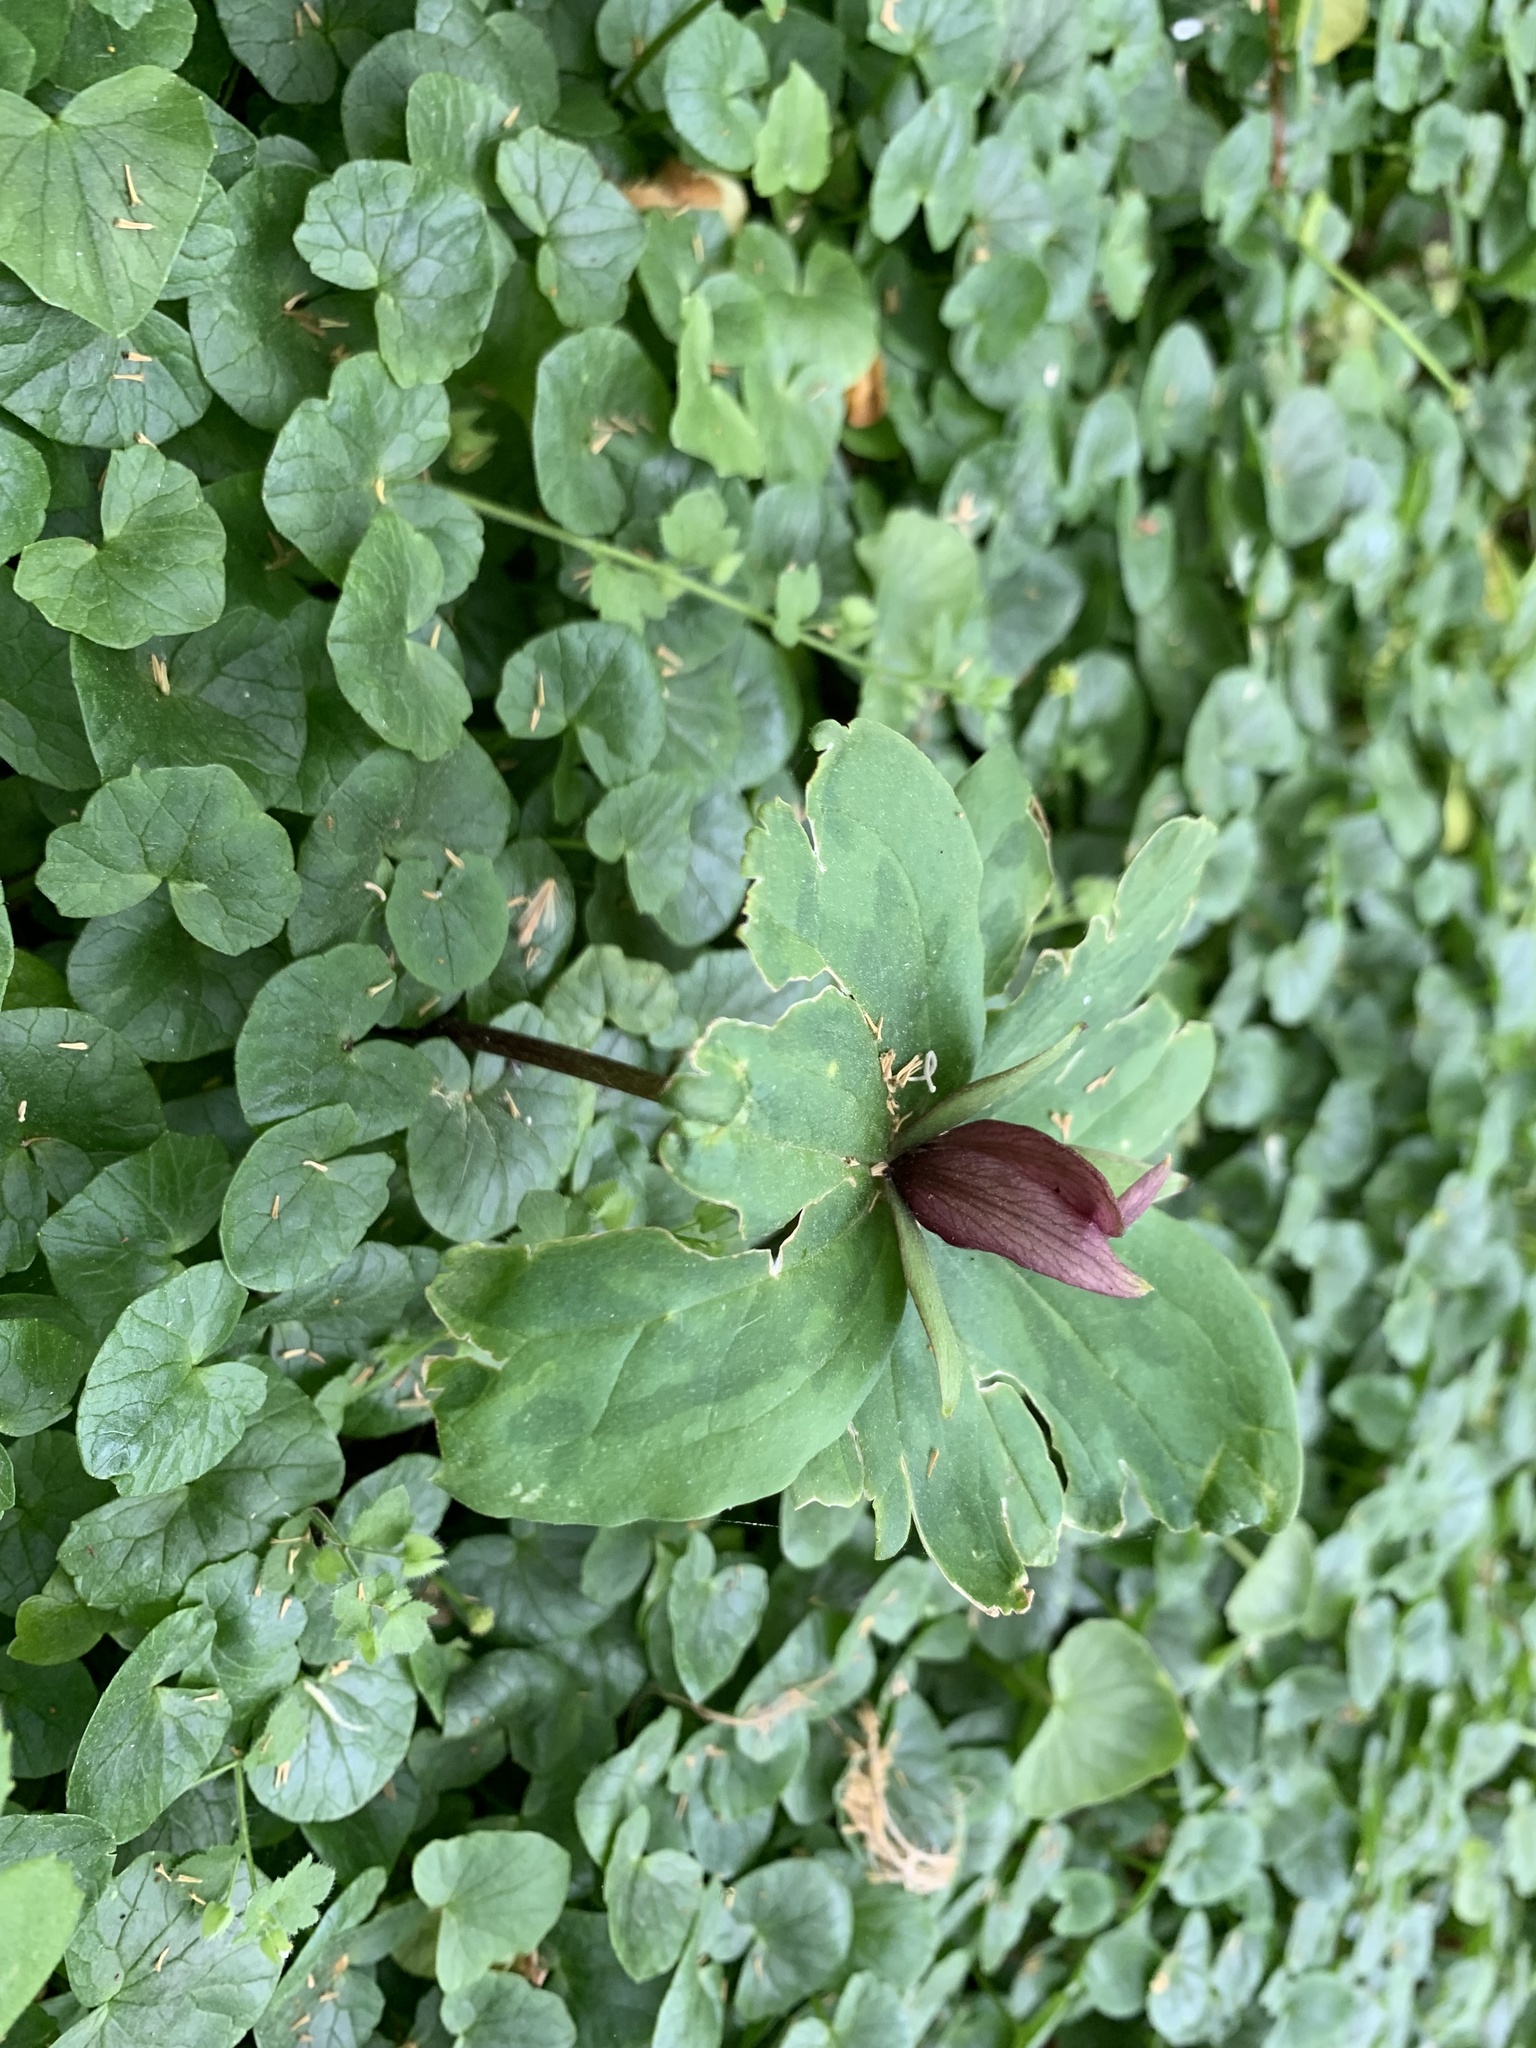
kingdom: Plantae
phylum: Tracheophyta
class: Liliopsida
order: Liliales
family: Melanthiaceae
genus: Trillium
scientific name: Trillium sessile
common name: Sessile trillium
